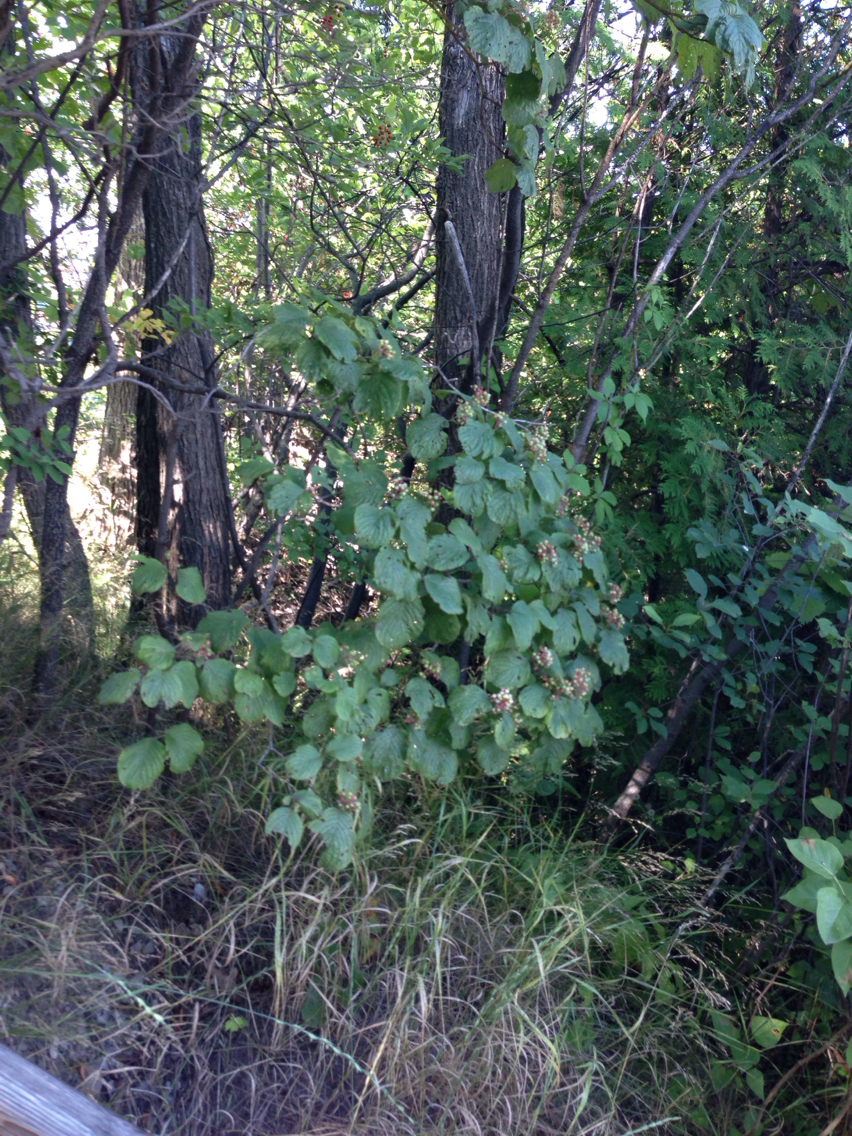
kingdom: Plantae
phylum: Tracheophyta
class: Magnoliopsida
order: Cornales
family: Cornaceae
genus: Cornus
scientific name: Cornus rugosa
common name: Round-leaf dogwood
